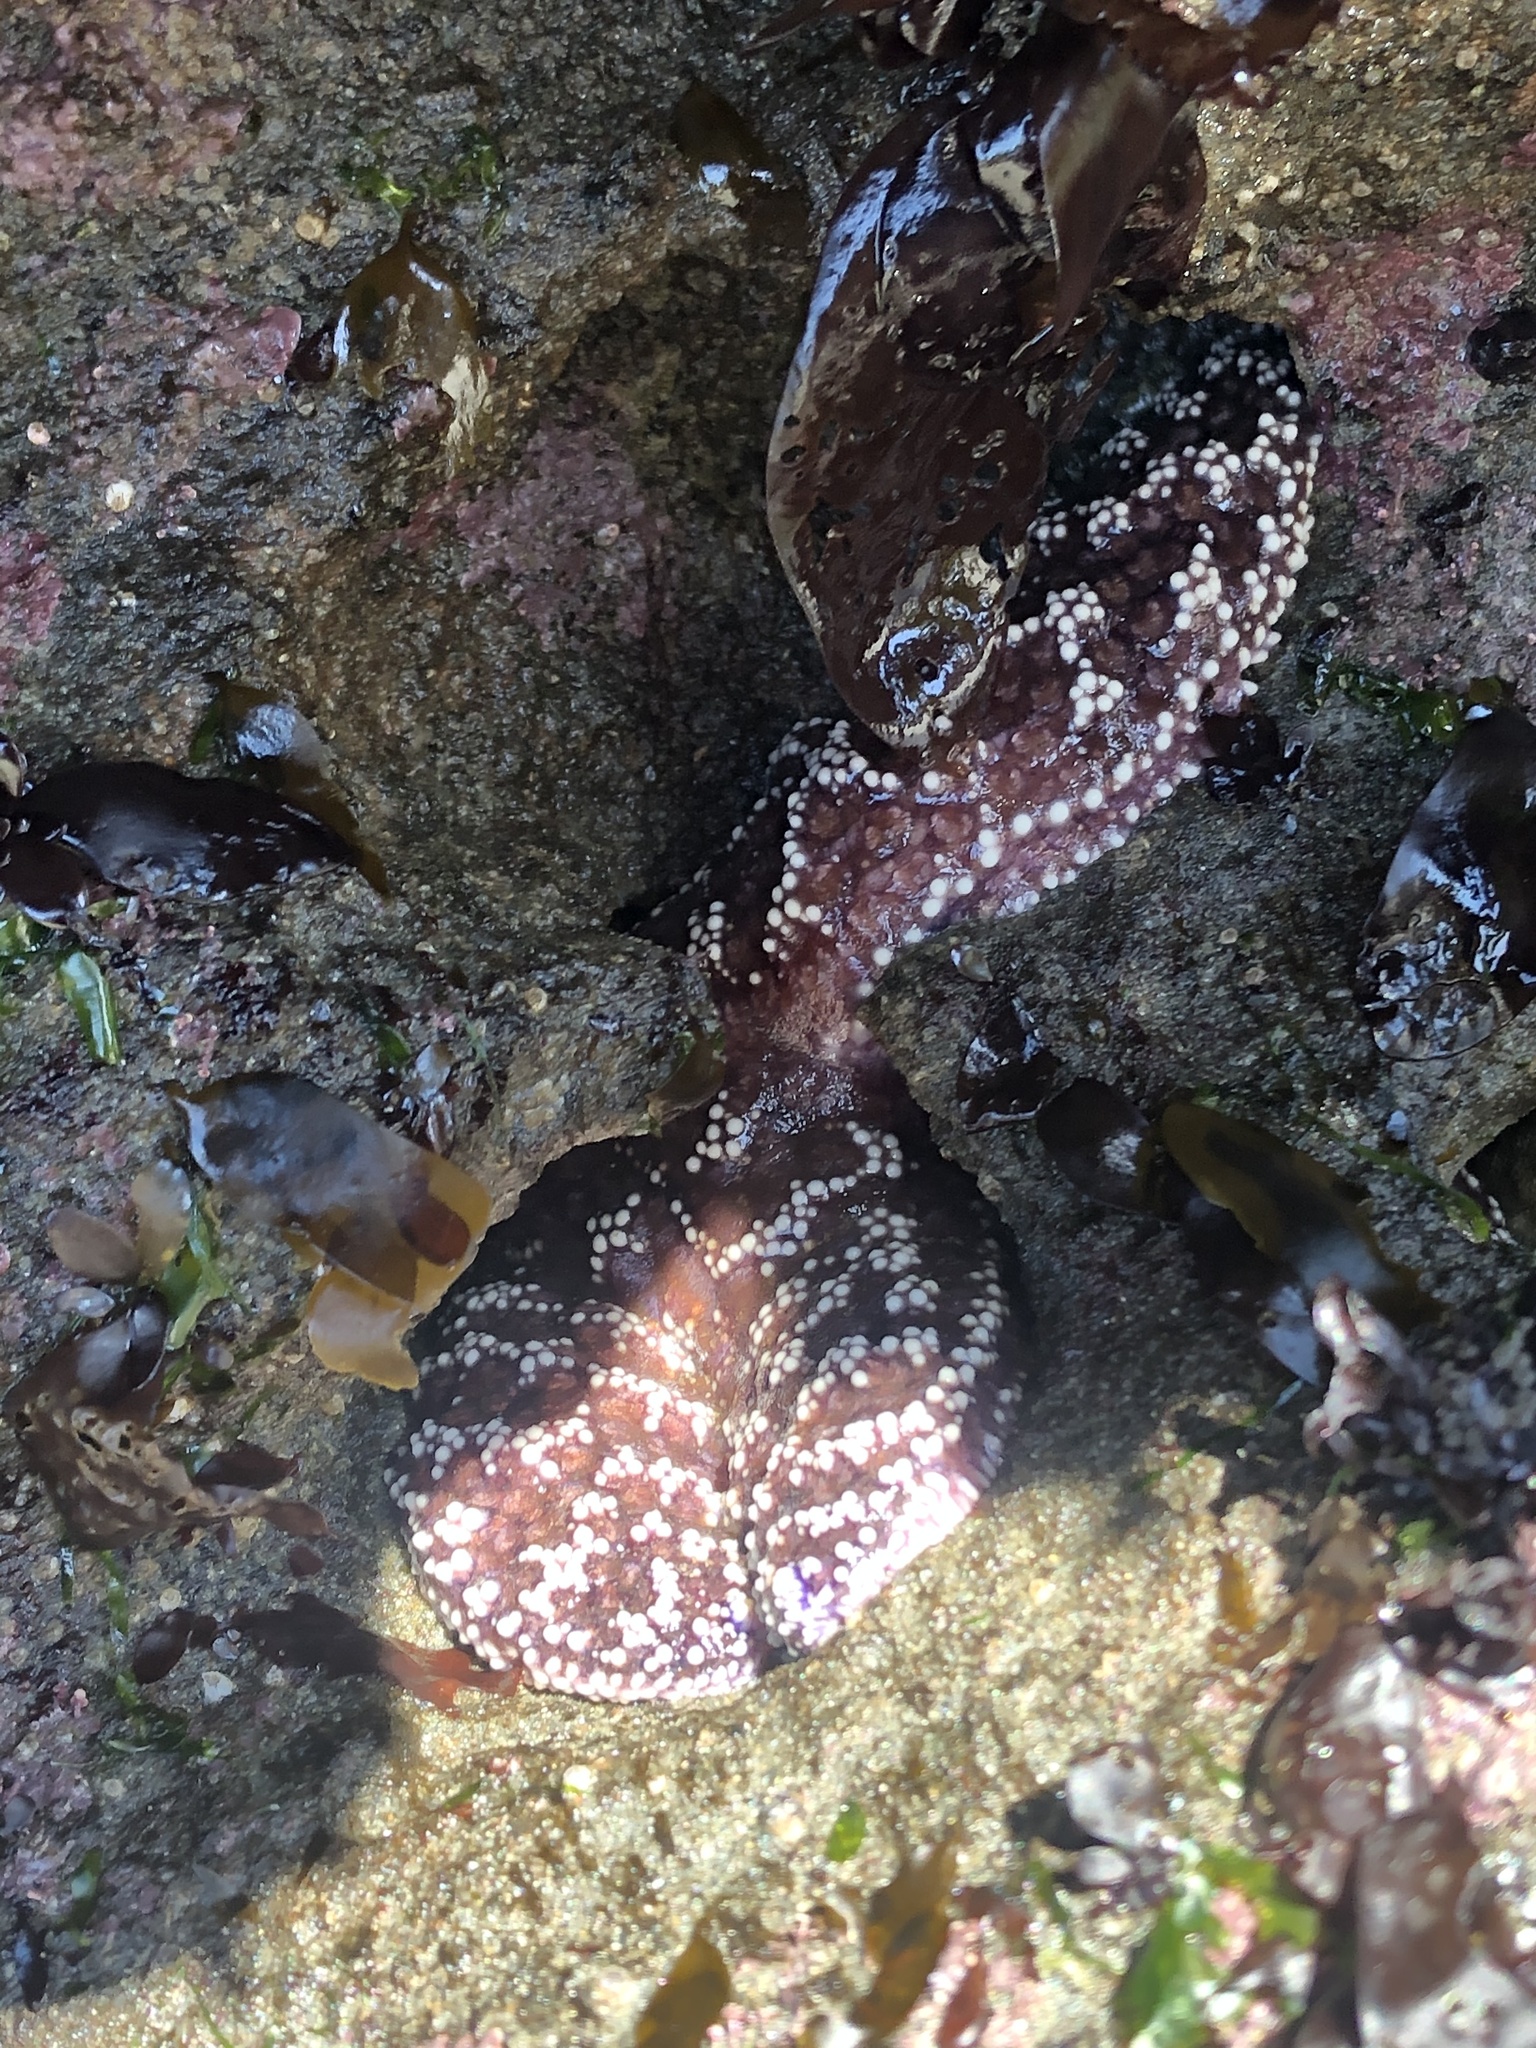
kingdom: Animalia
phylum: Echinodermata
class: Asteroidea
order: Forcipulatida
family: Asteriidae
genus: Pisaster
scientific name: Pisaster ochraceus
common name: Ochre stars
